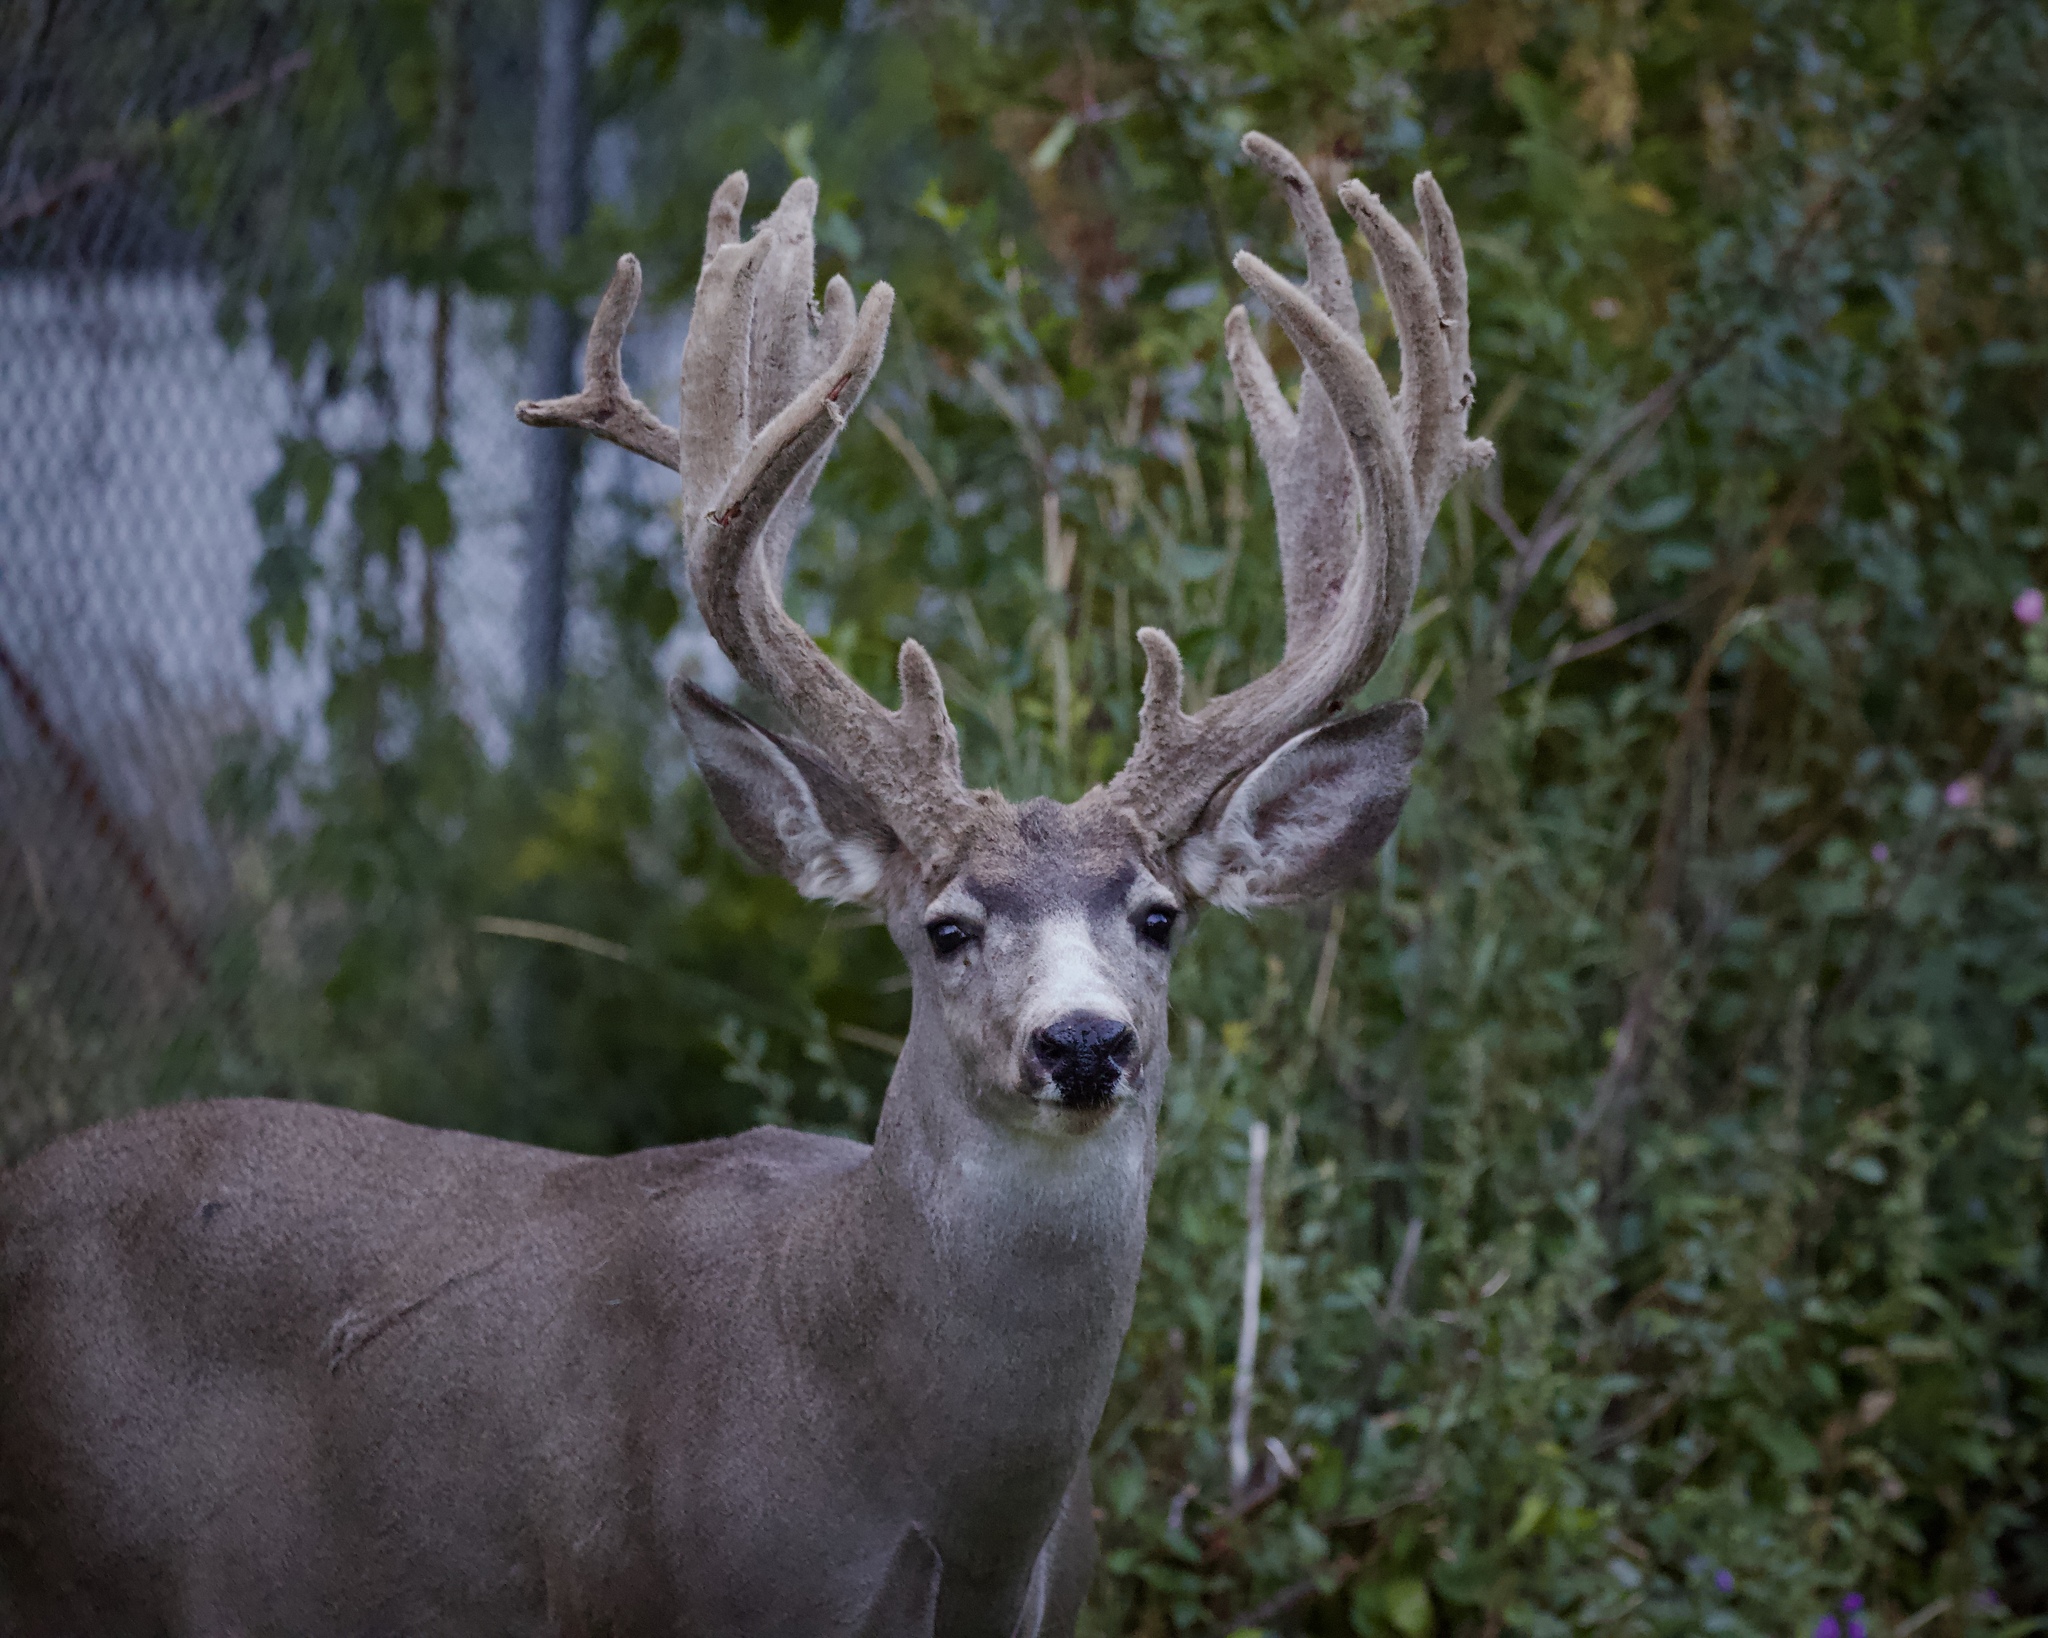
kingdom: Animalia
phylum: Chordata
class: Mammalia
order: Artiodactyla
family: Cervidae
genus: Odocoileus
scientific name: Odocoileus hemionus
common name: Mule deer
